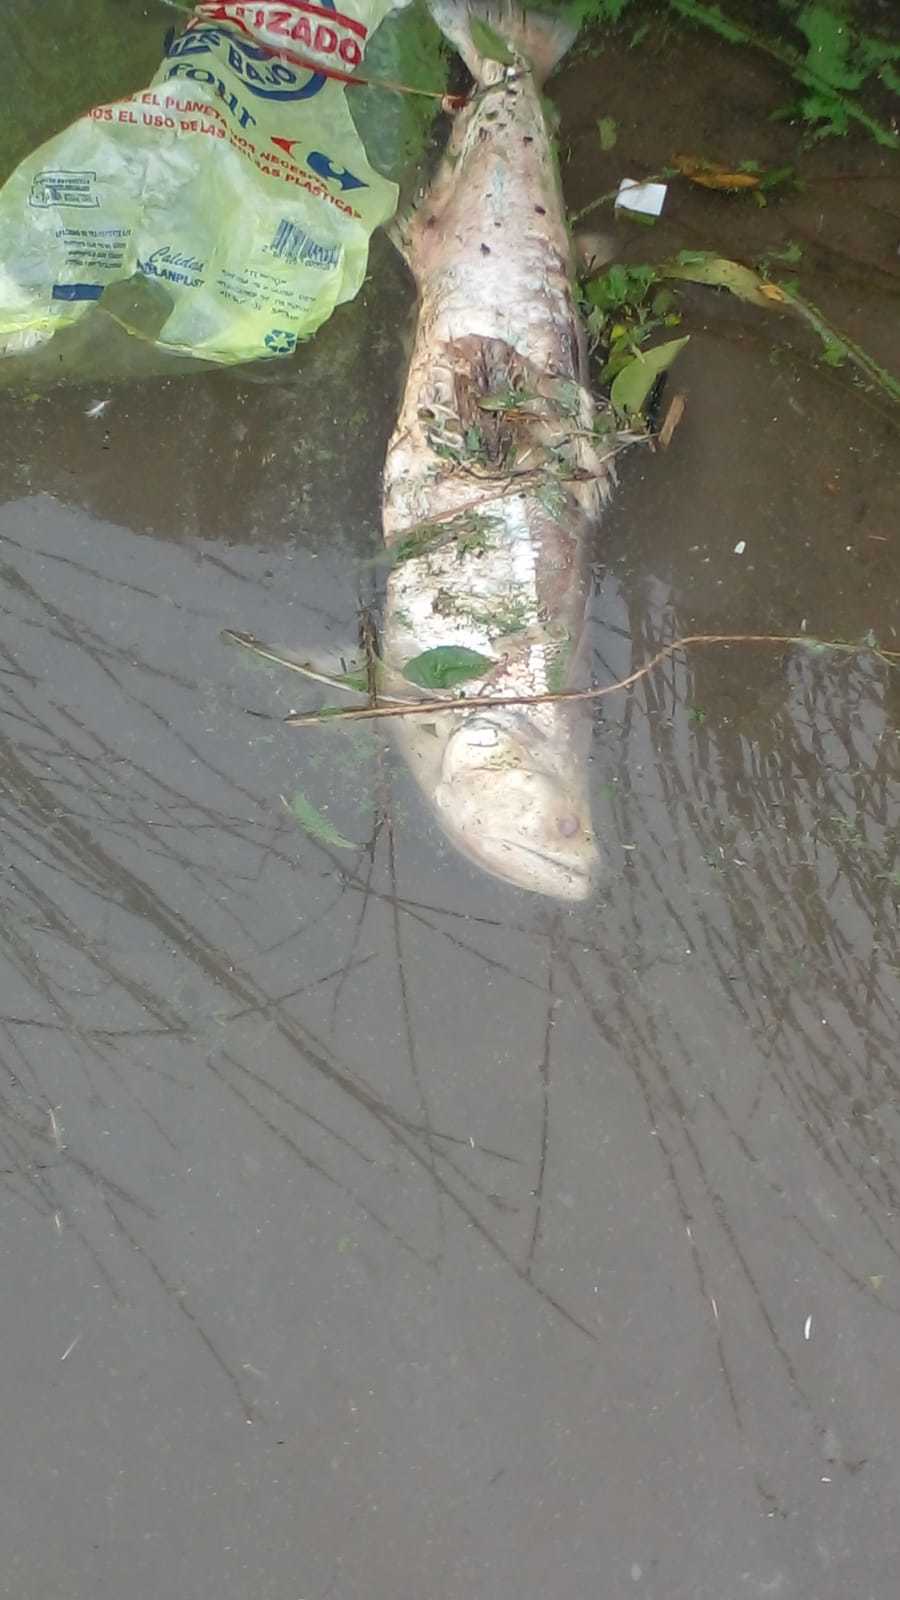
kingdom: Animalia
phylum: Chordata
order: Characiformes
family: Cynodontidae
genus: Rhaphiodon
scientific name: Rhaphiodon vulpinus
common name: Biara
